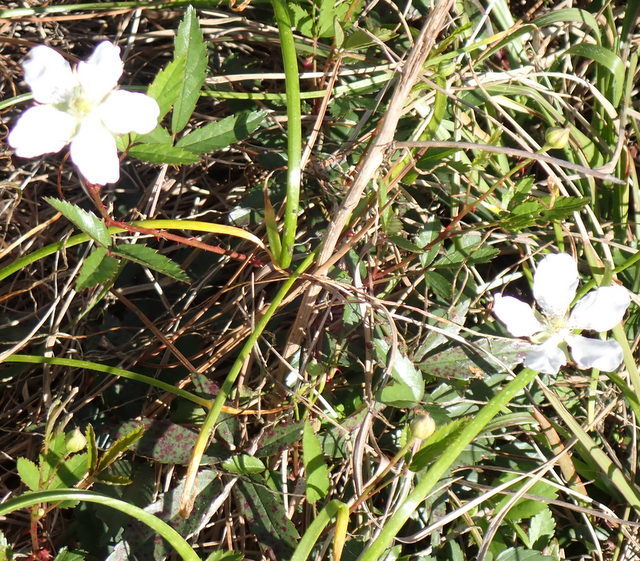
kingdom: Plantae
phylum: Tracheophyta
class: Magnoliopsida
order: Rosales
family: Rosaceae
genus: Rubus
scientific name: Rubus trivialis
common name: Southern dewberry
